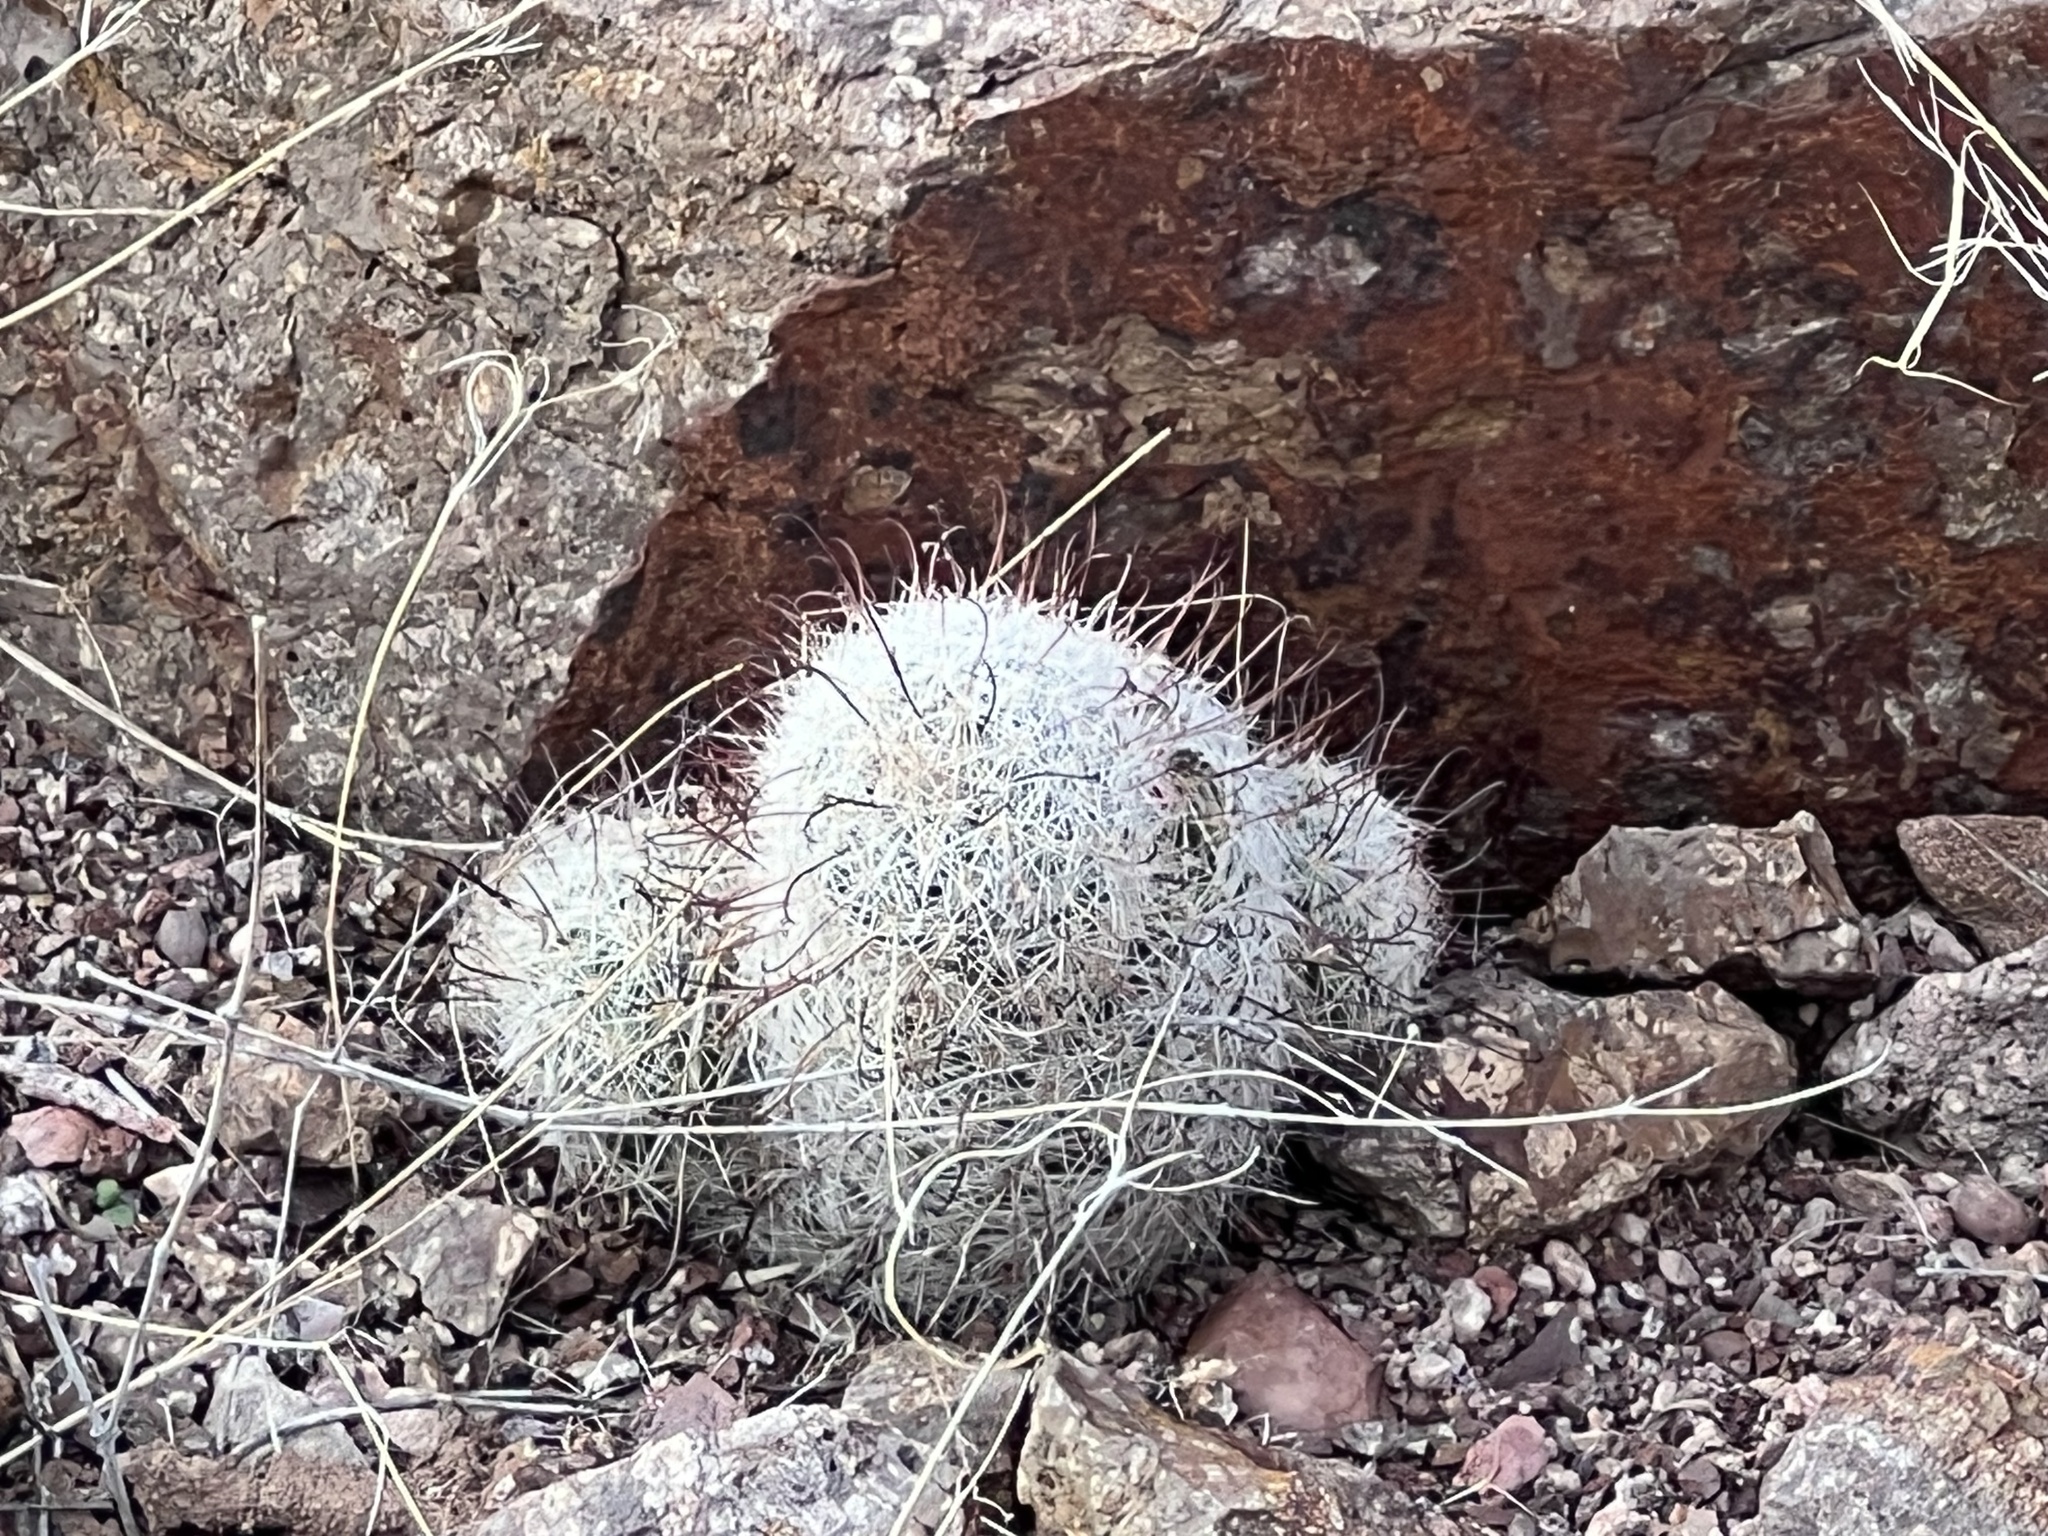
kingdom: Plantae
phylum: Tracheophyta
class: Magnoliopsida
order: Caryophyllales
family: Cactaceae
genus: Cochemiea
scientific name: Cochemiea grahamii
